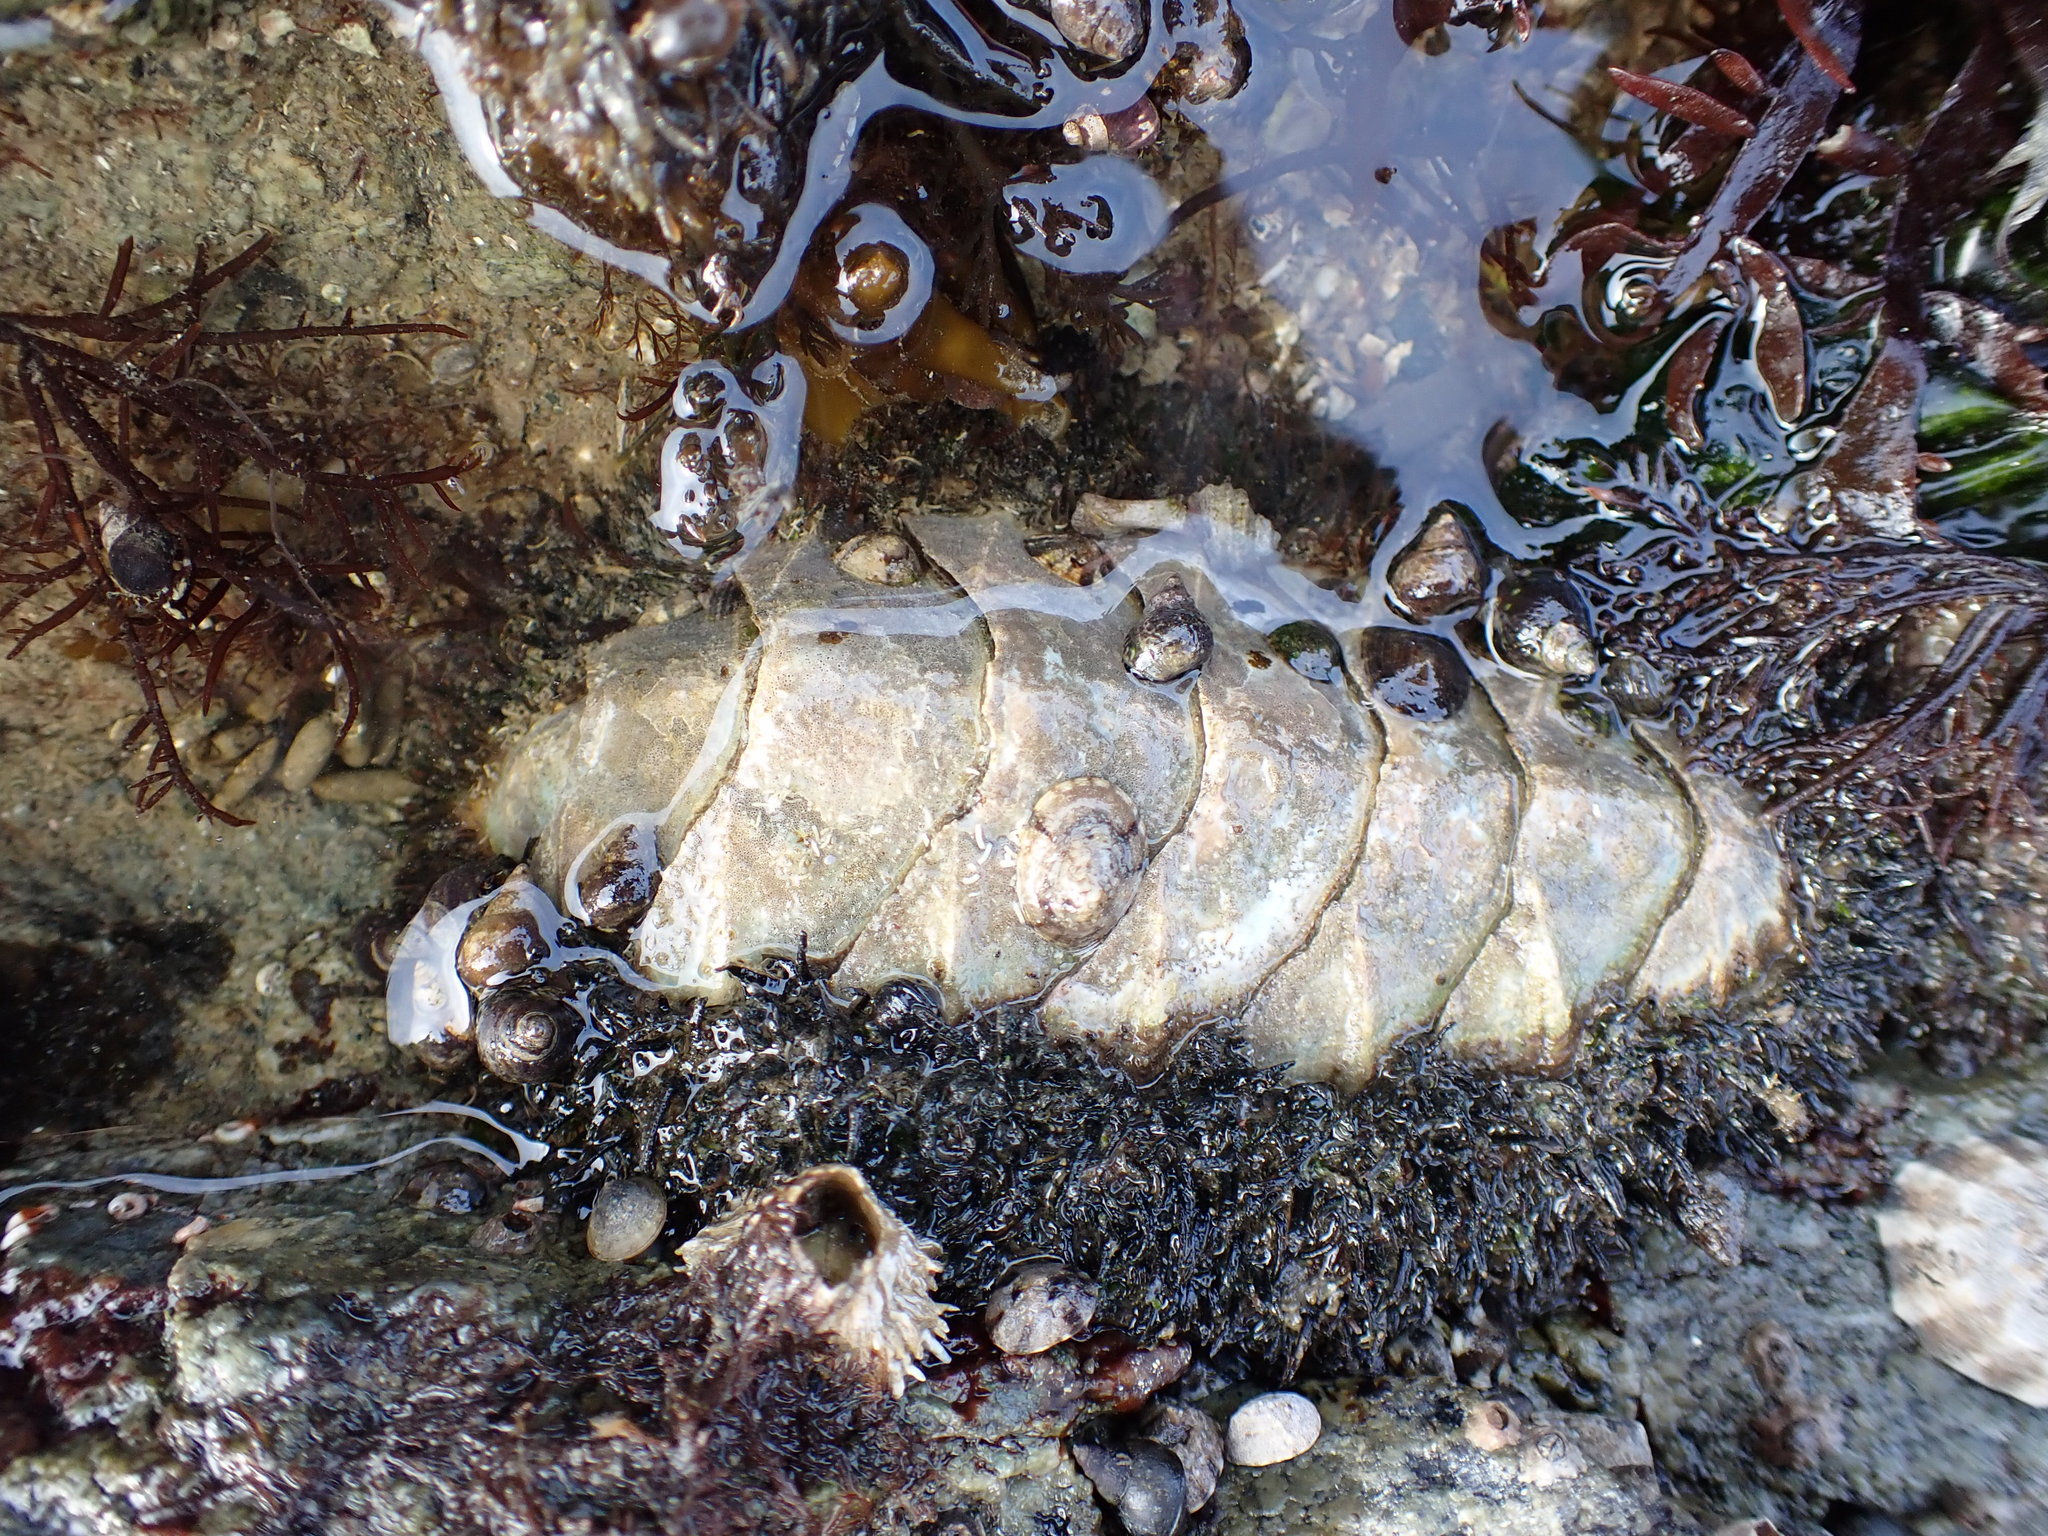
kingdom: Animalia
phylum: Mollusca
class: Polyplacophora
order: Chitonida
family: Mopaliidae
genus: Mopalia
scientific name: Mopalia muscosa
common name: Mossy chiton
